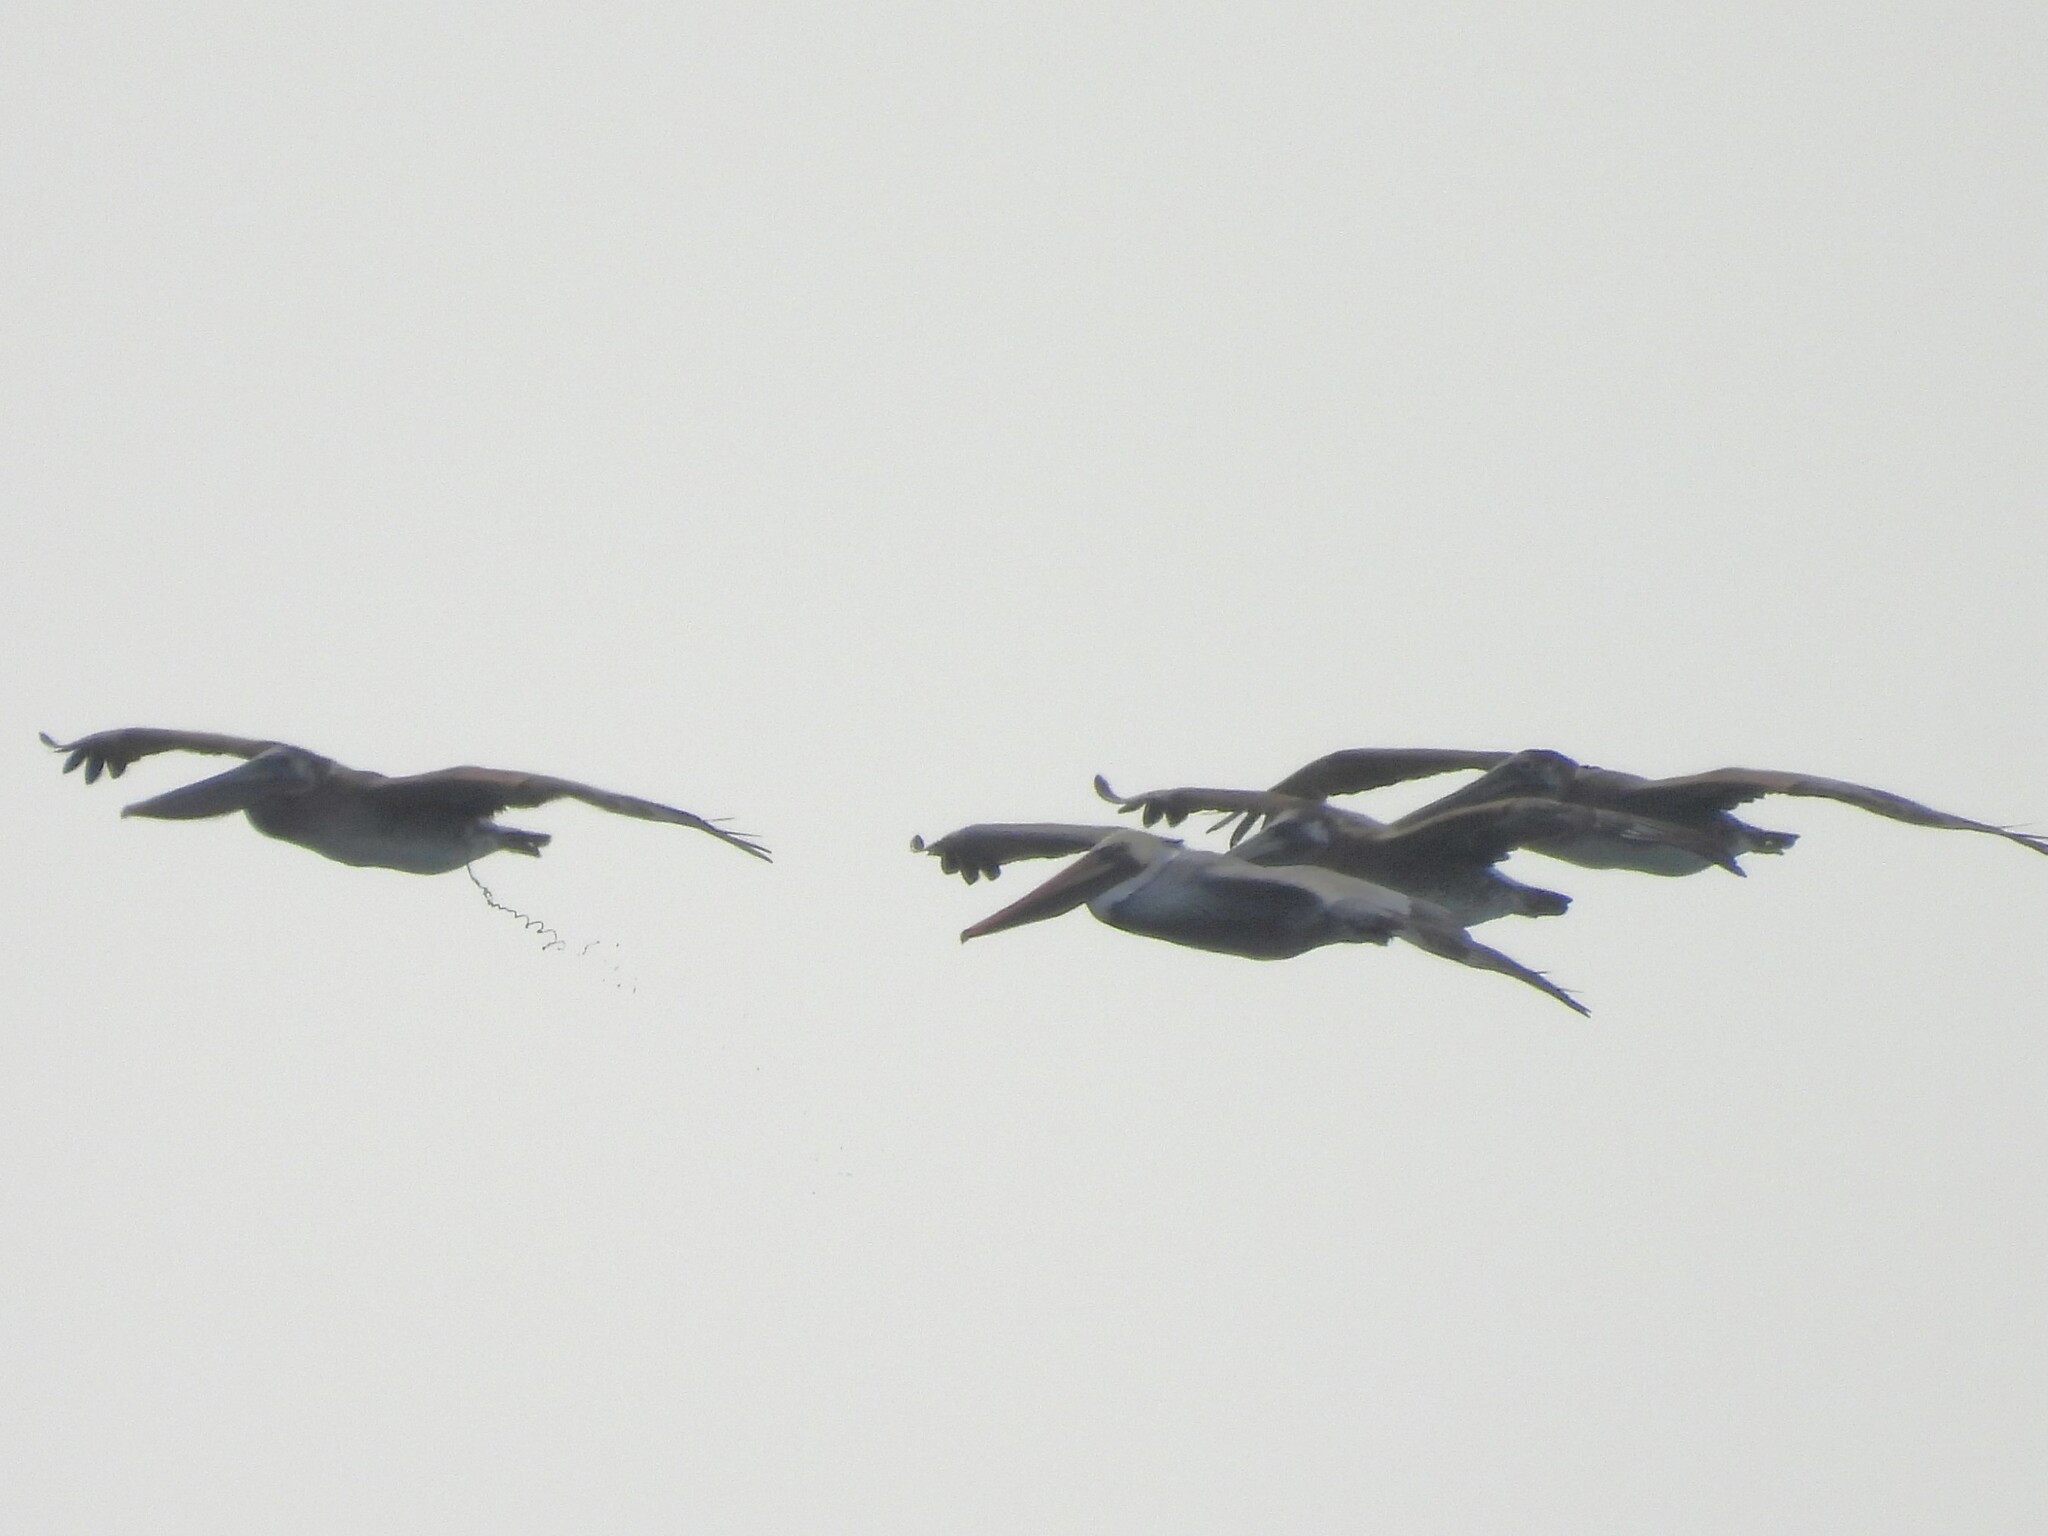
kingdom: Animalia
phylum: Chordata
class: Aves
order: Pelecaniformes
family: Pelecanidae
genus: Pelecanus
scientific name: Pelecanus occidentalis
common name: Brown pelican
